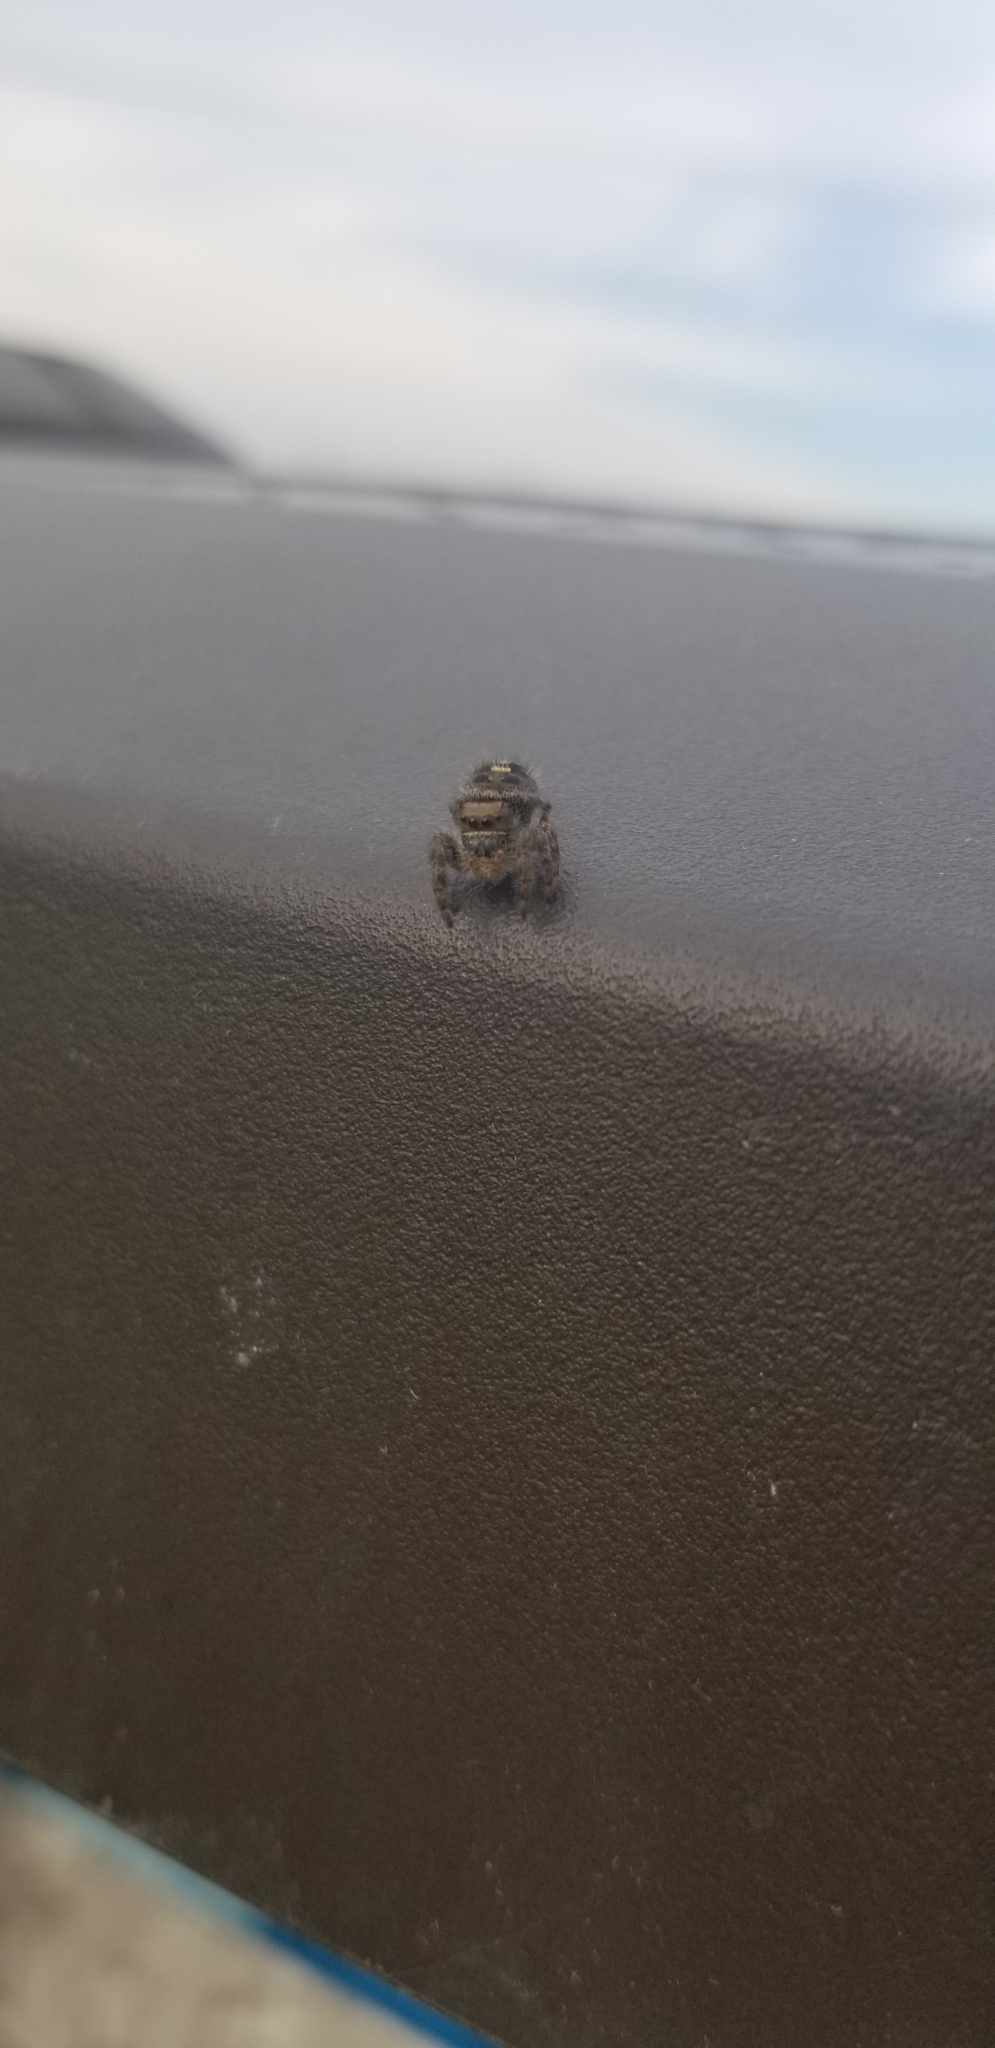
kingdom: Animalia
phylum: Arthropoda
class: Arachnida
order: Araneae
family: Salticidae
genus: Phidippus
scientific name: Phidippus audax
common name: Bold jumper
